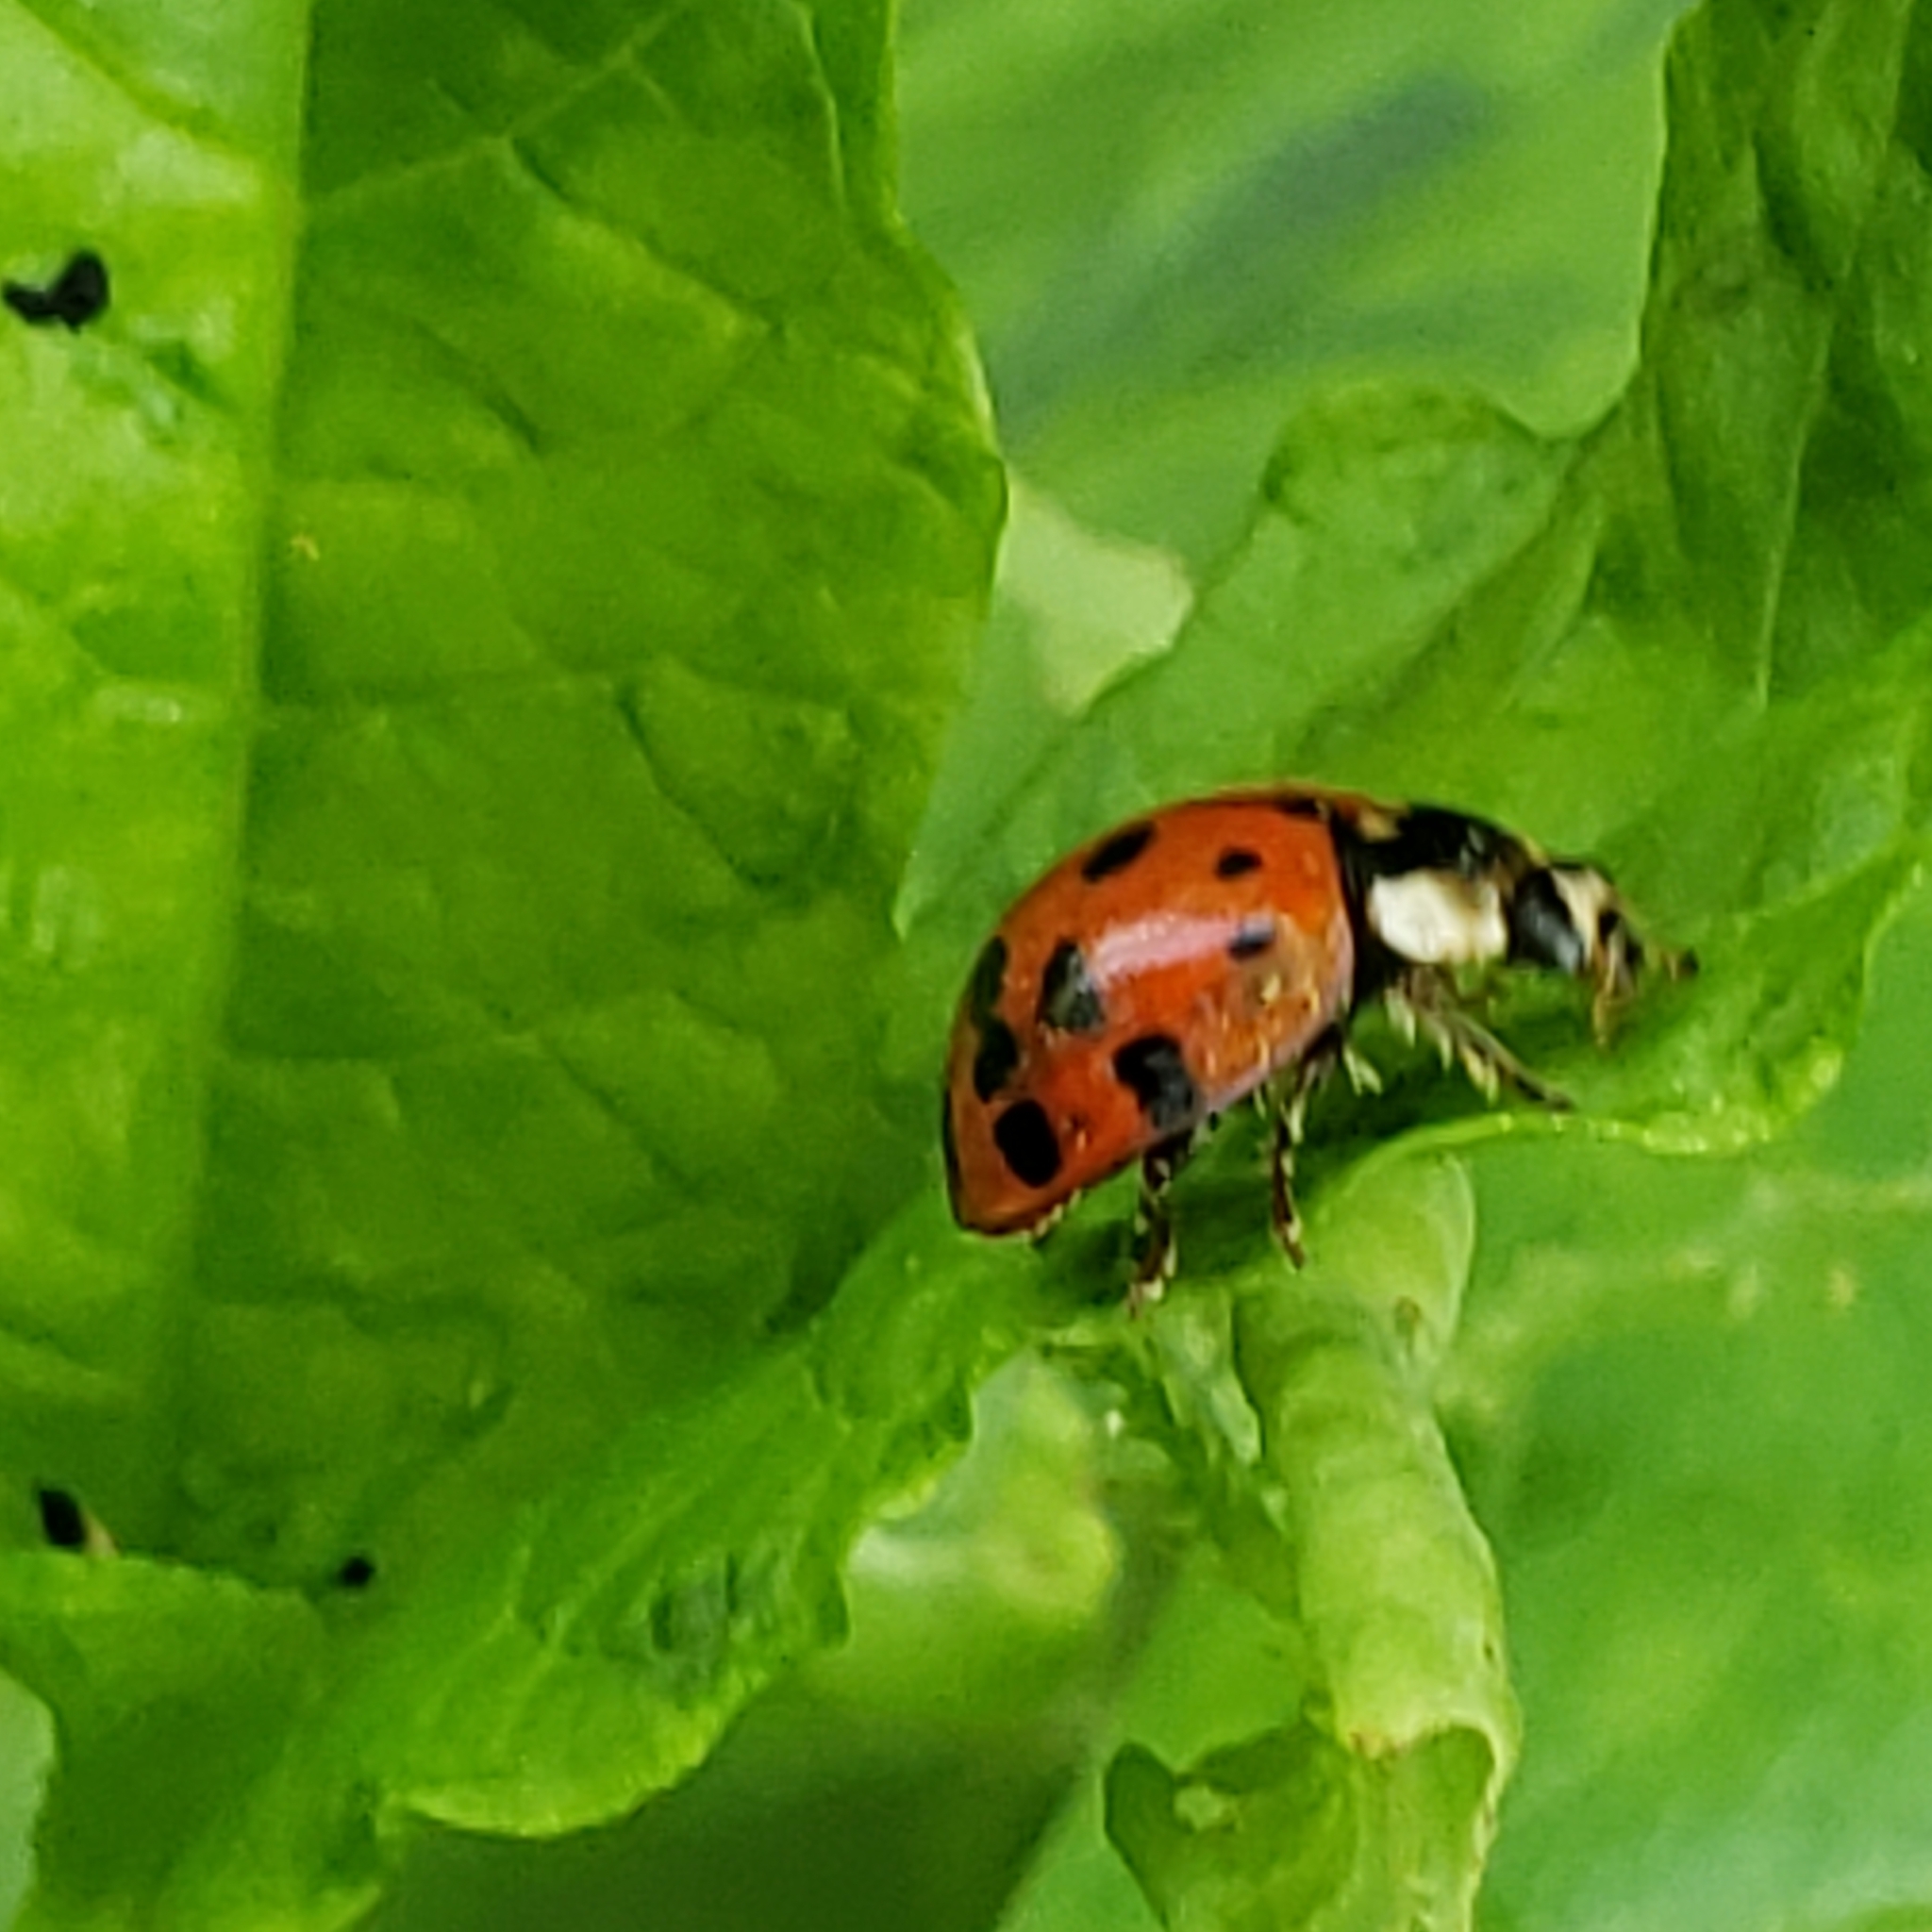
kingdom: Animalia
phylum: Arthropoda
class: Insecta
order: Coleoptera
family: Coccinellidae
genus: Harmonia
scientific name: Harmonia axyridis
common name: Harlequin ladybird
